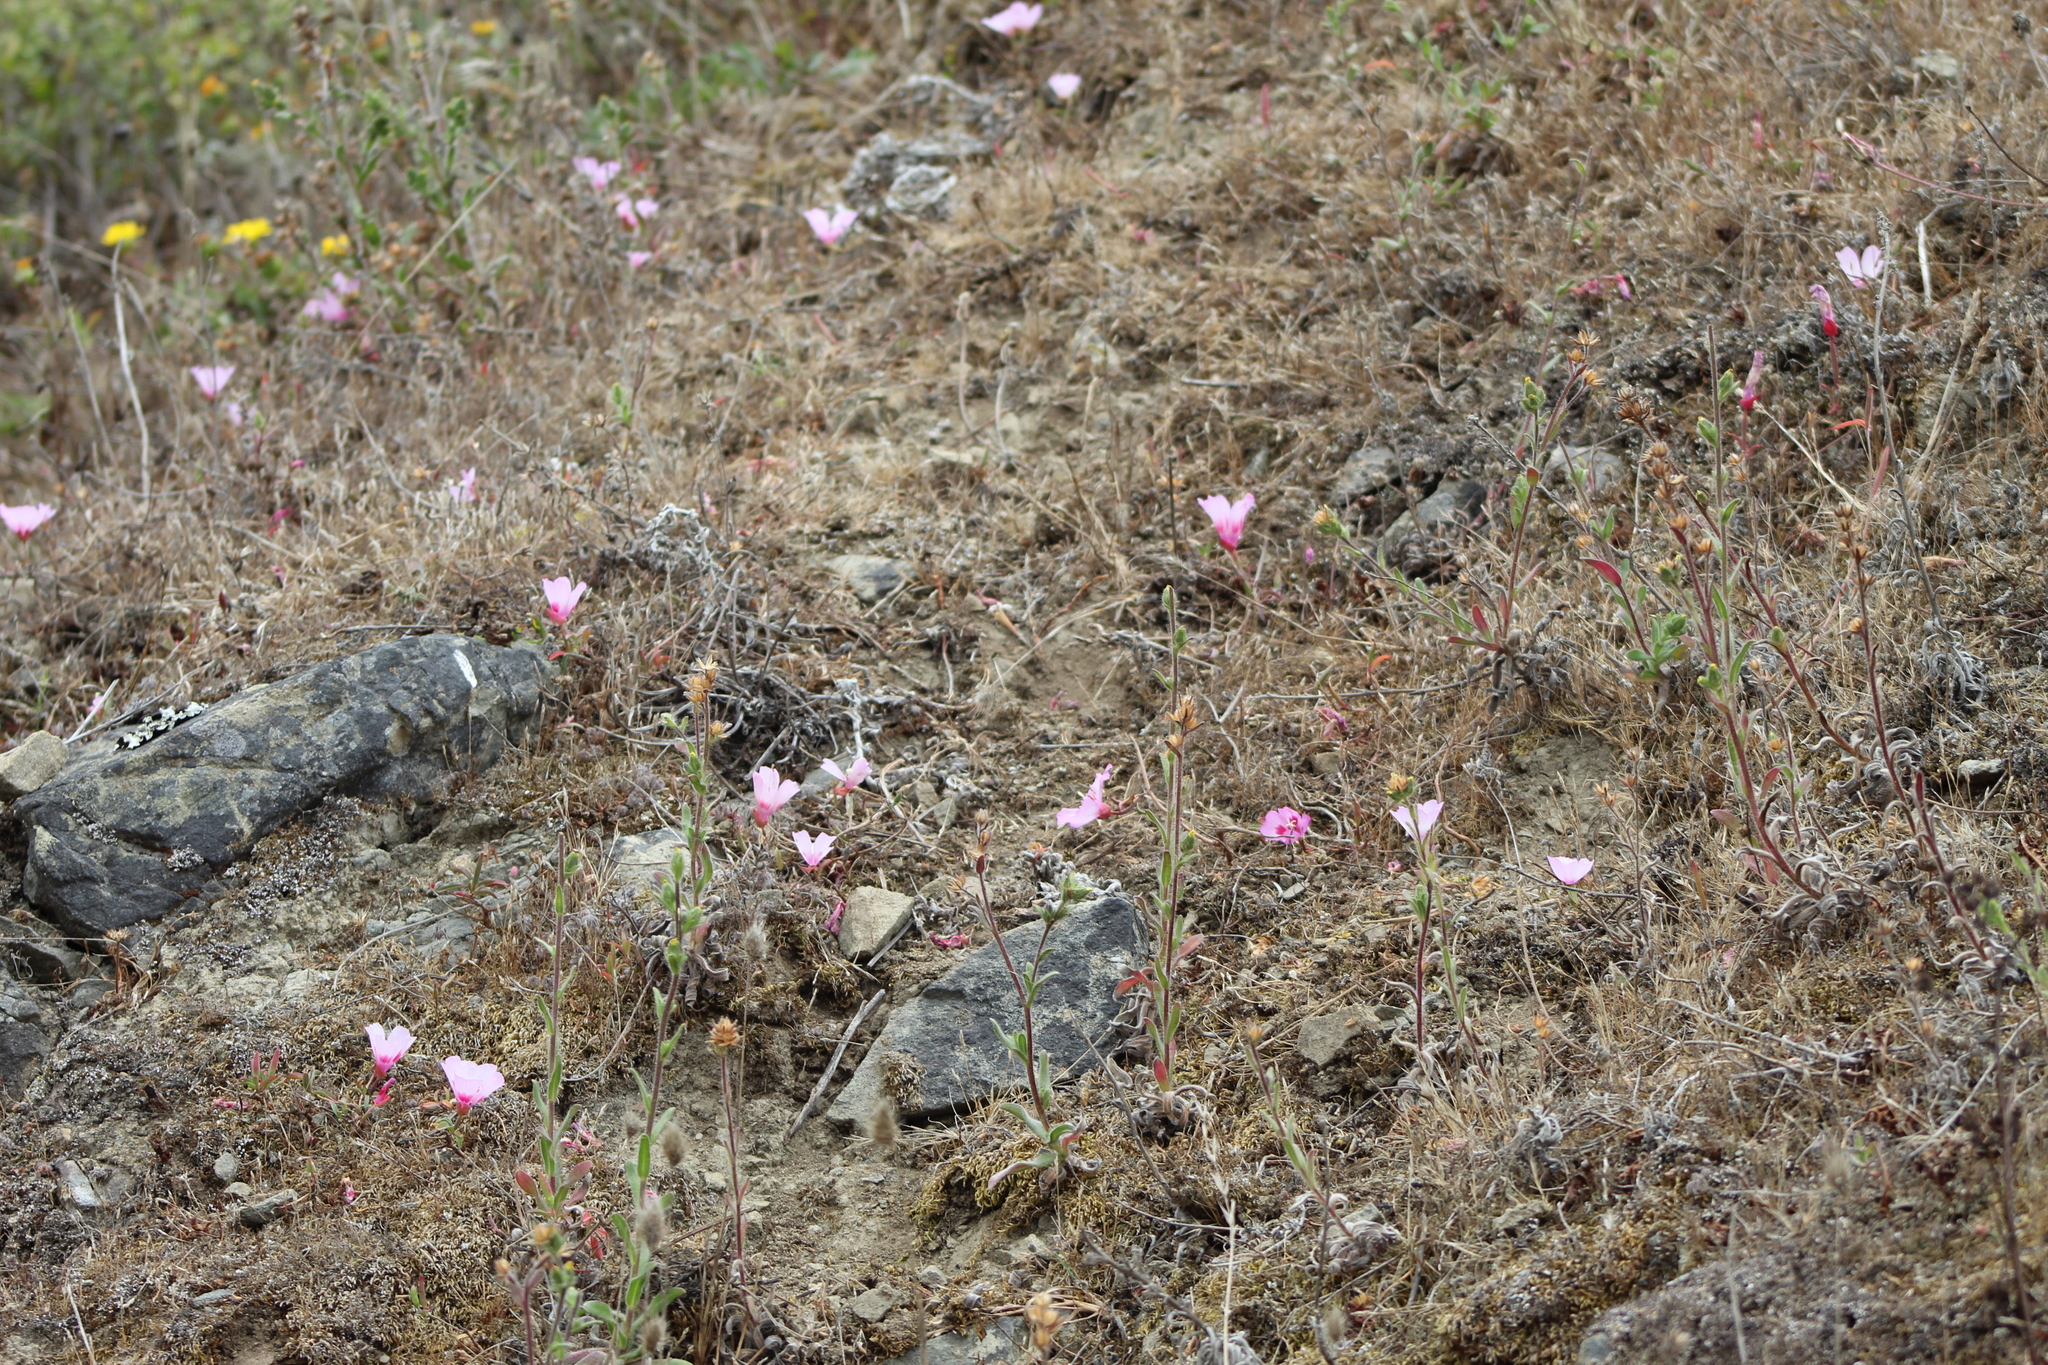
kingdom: Plantae
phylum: Tracheophyta
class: Magnoliopsida
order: Myrtales
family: Onagraceae
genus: Clarkia
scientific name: Clarkia amoena
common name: Godetia
